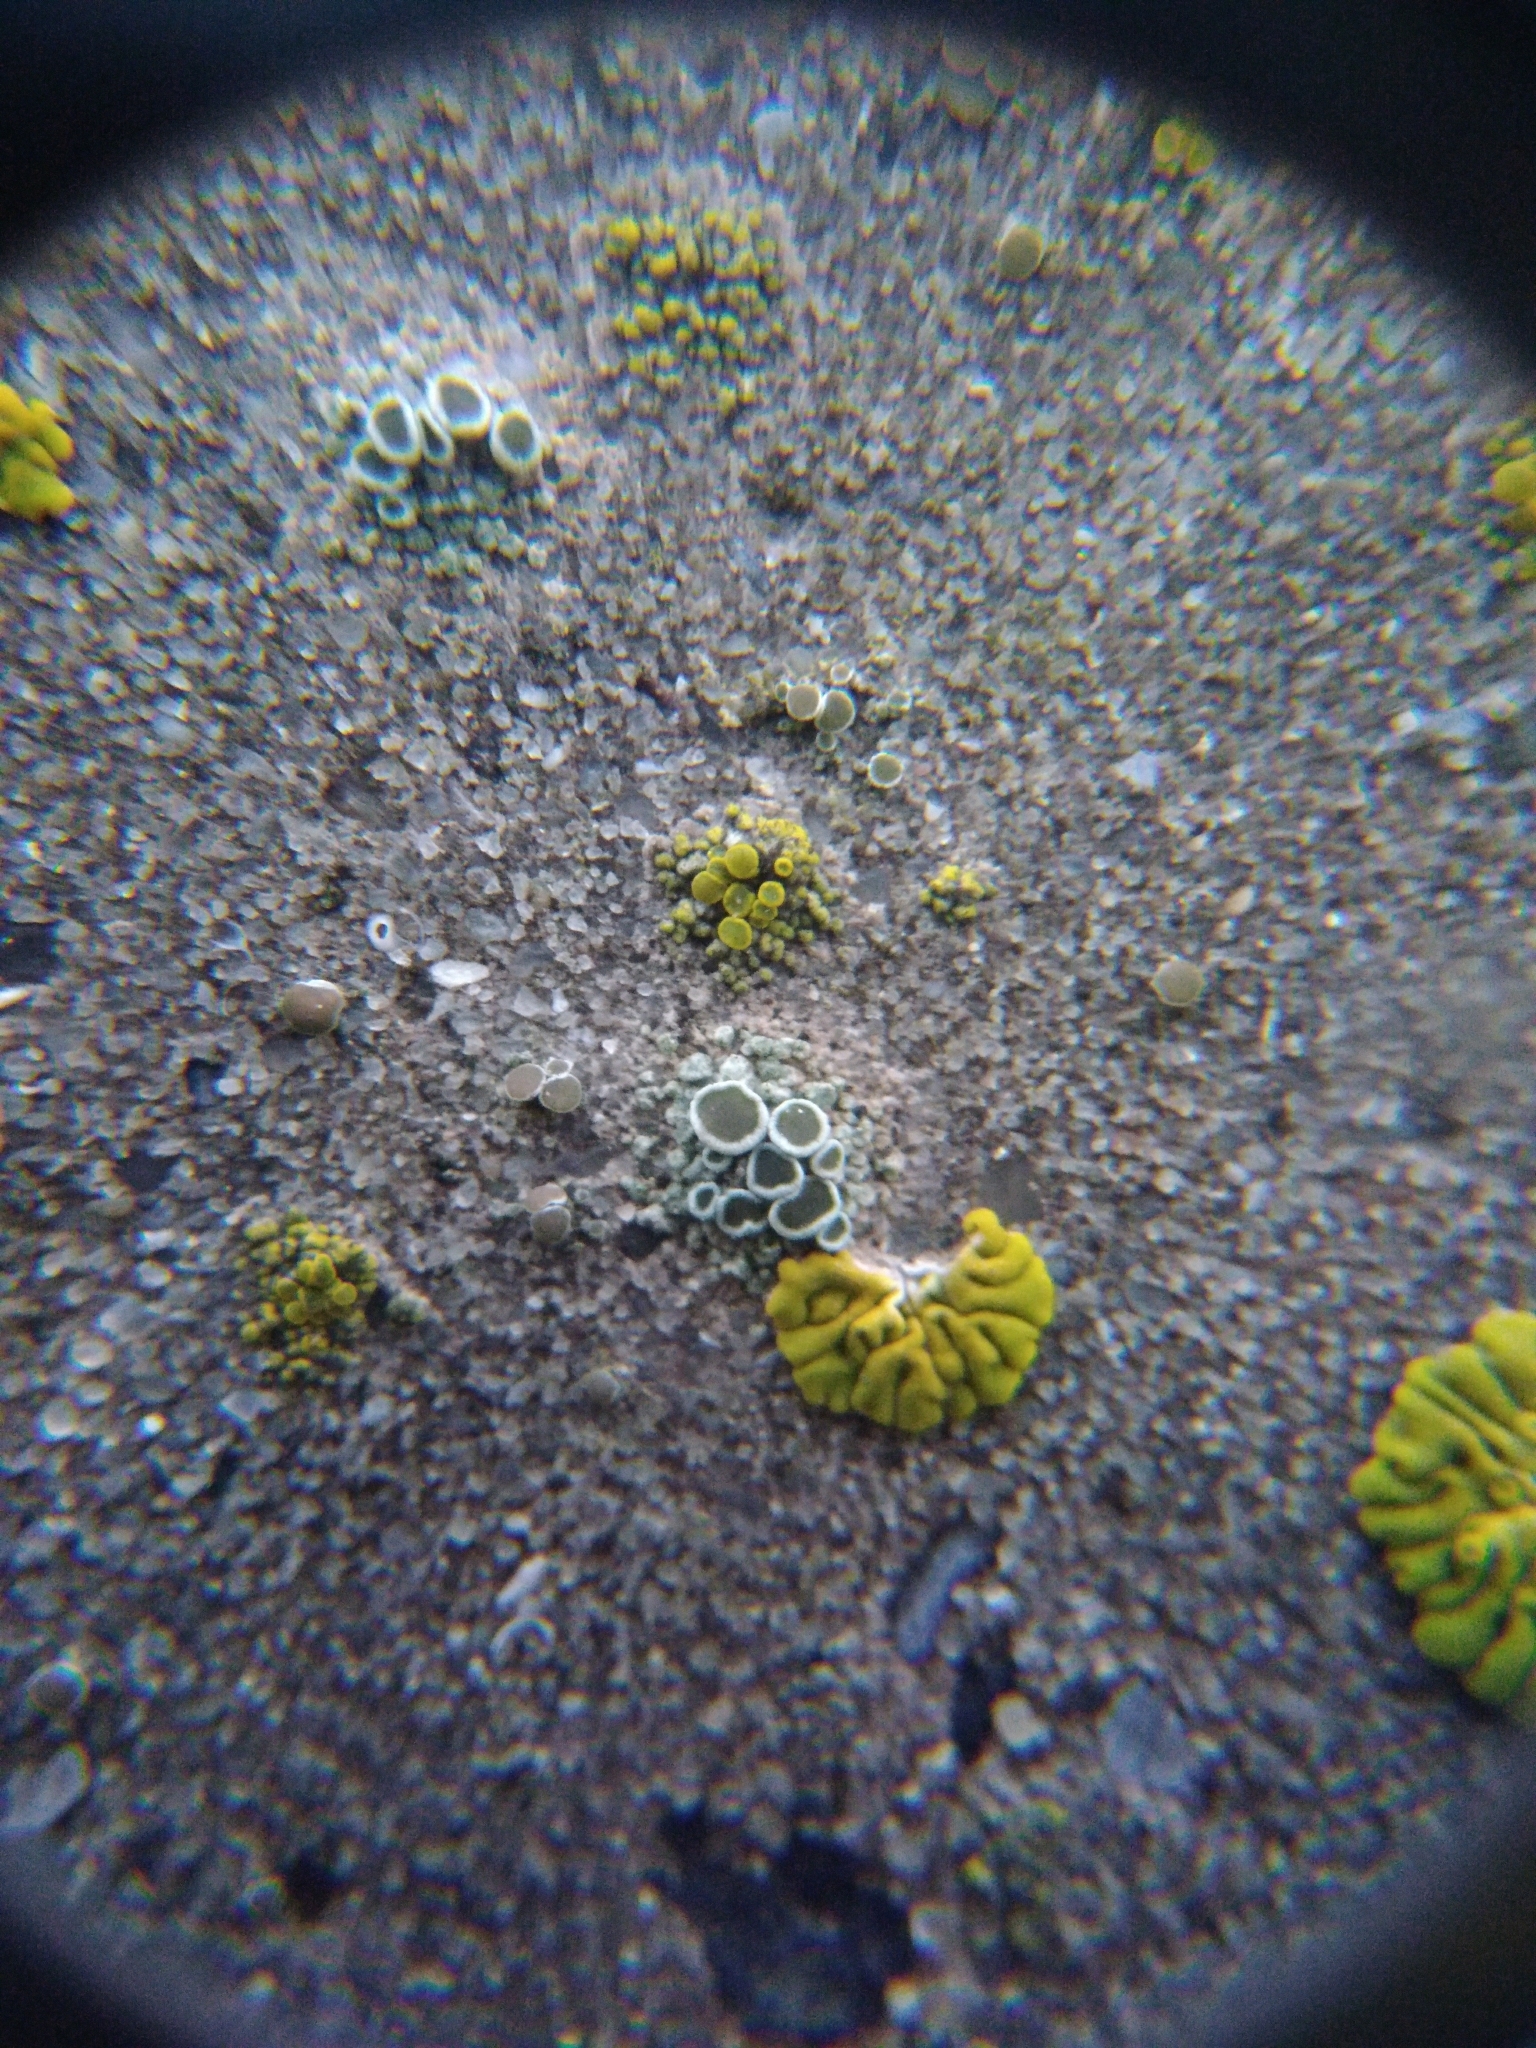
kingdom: Fungi
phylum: Ascomycota
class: Lecanoromycetes
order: Lecanorales
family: Lecanoraceae
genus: Polyozosia
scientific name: Polyozosia albescens
